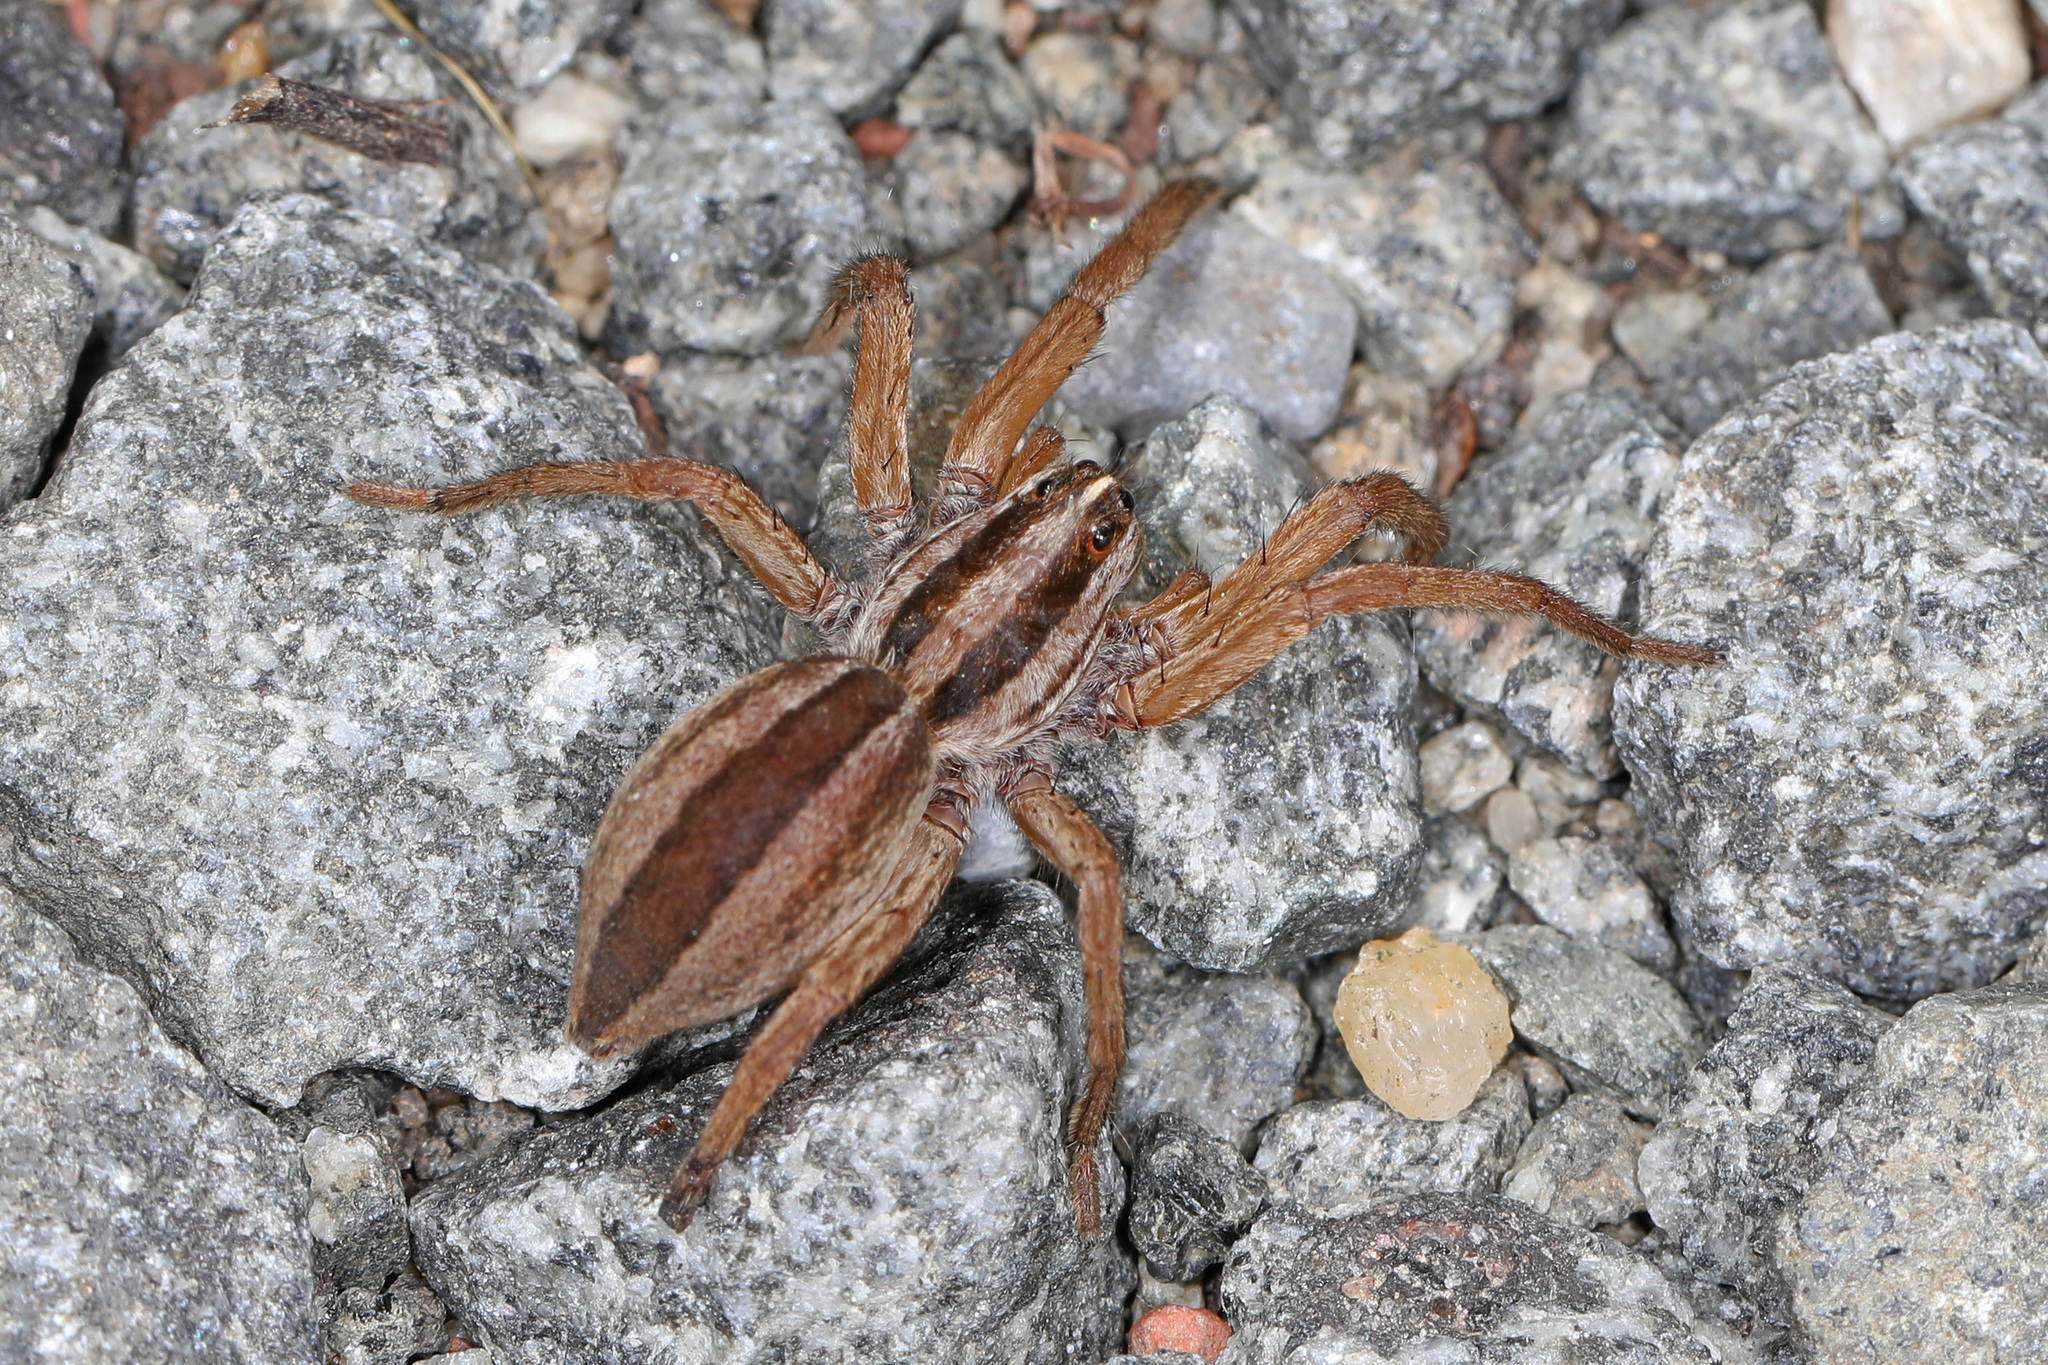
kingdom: Animalia
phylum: Arthropoda
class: Arachnida
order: Araneae
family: Lycosidae
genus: Rabidosa
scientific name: Rabidosa
